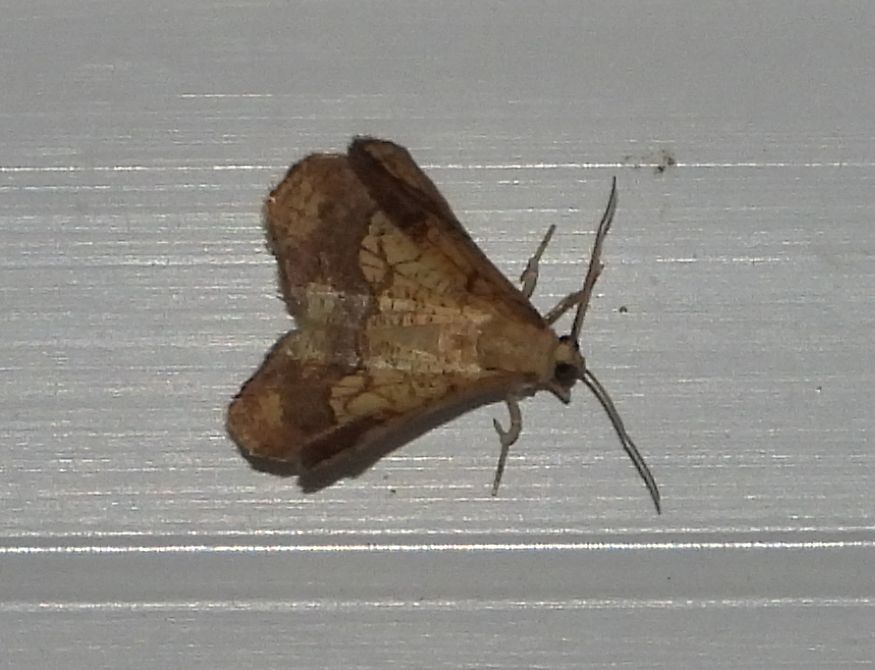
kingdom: Animalia
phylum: Arthropoda
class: Insecta
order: Lepidoptera
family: Geometridae
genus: Nematocampa
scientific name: Nematocampa resistaria
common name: Horned spanworm moth
